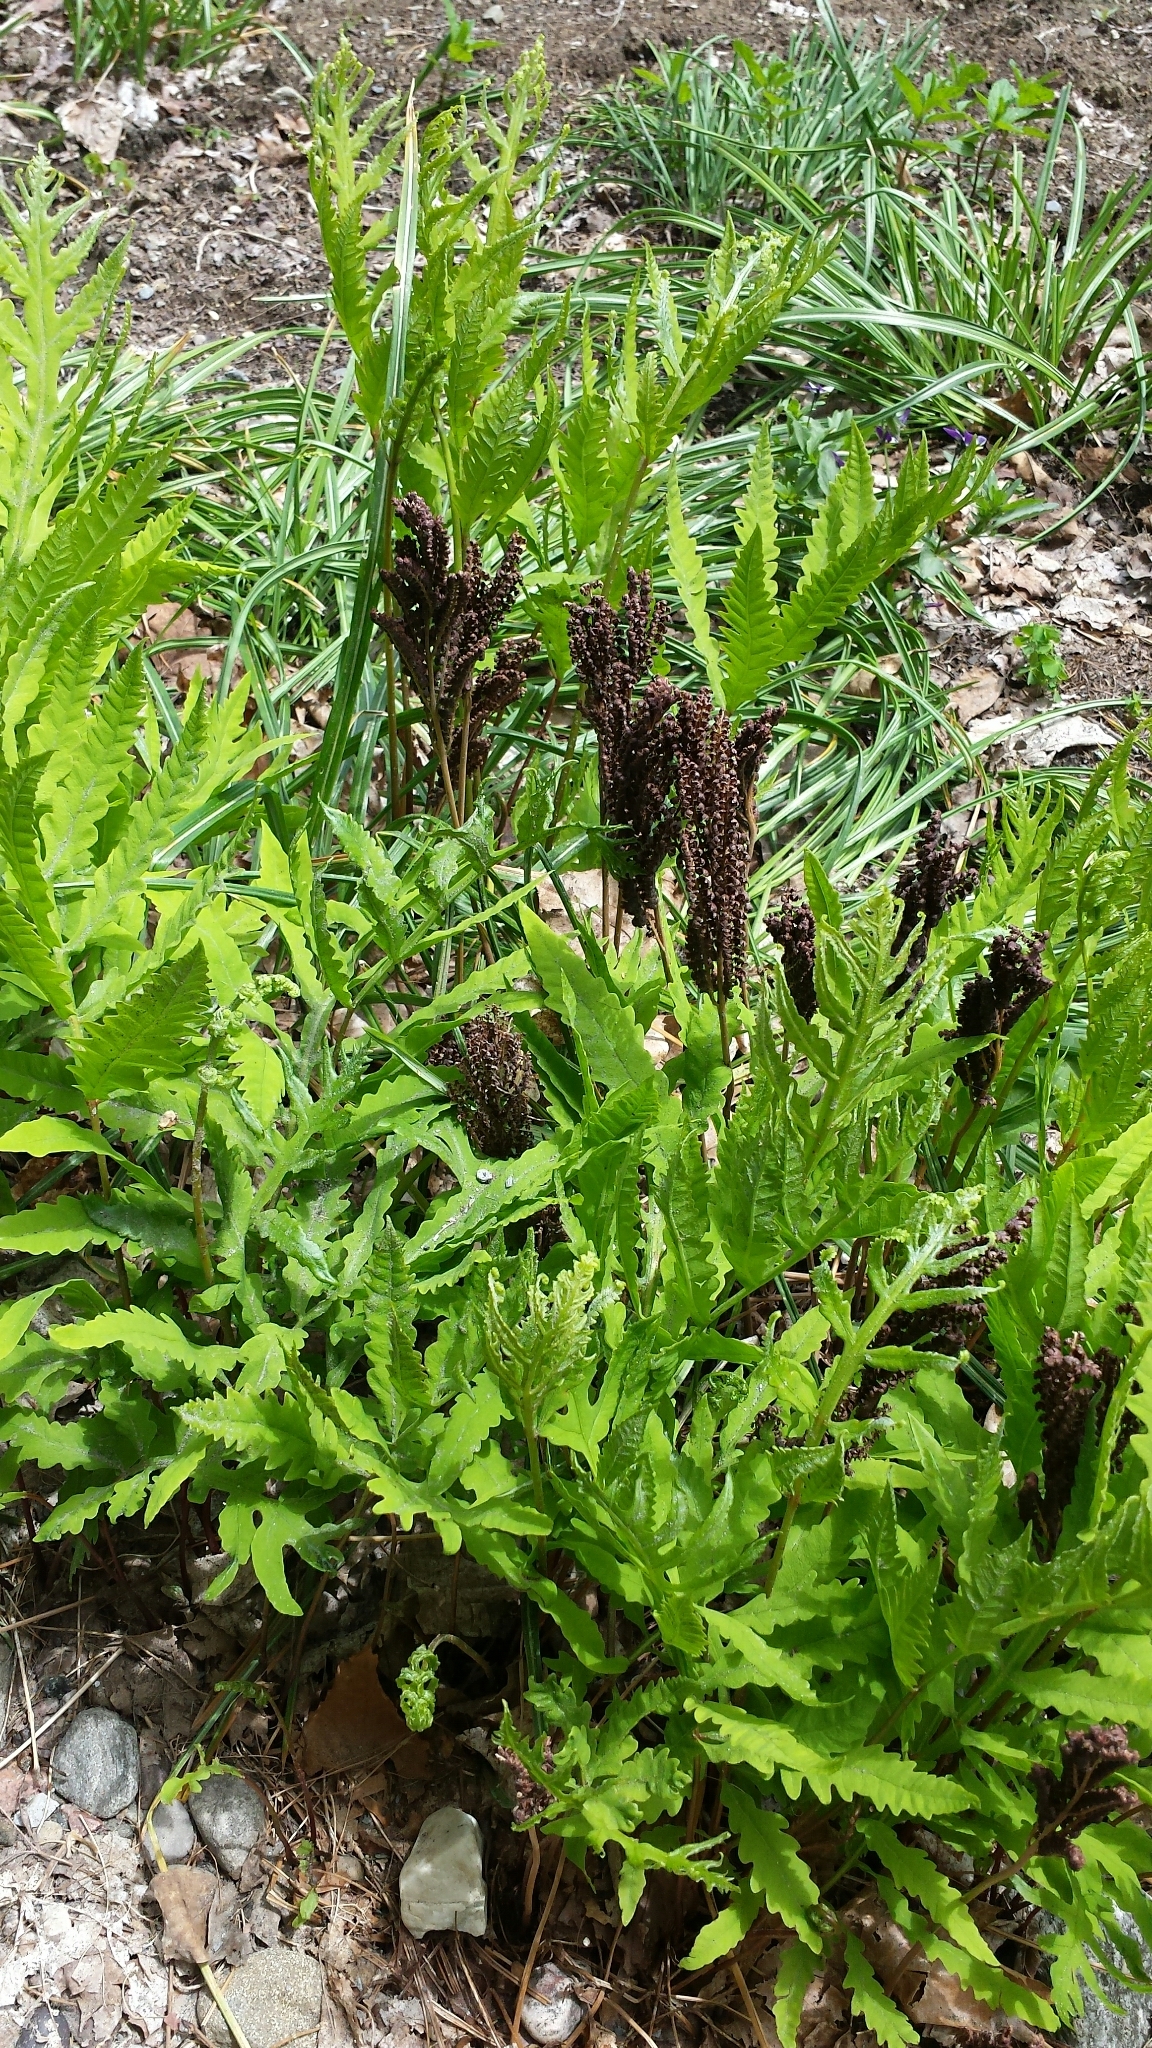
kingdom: Plantae
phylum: Tracheophyta
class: Polypodiopsida
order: Polypodiales
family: Onocleaceae
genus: Onoclea
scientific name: Onoclea sensibilis
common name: Sensitive fern
